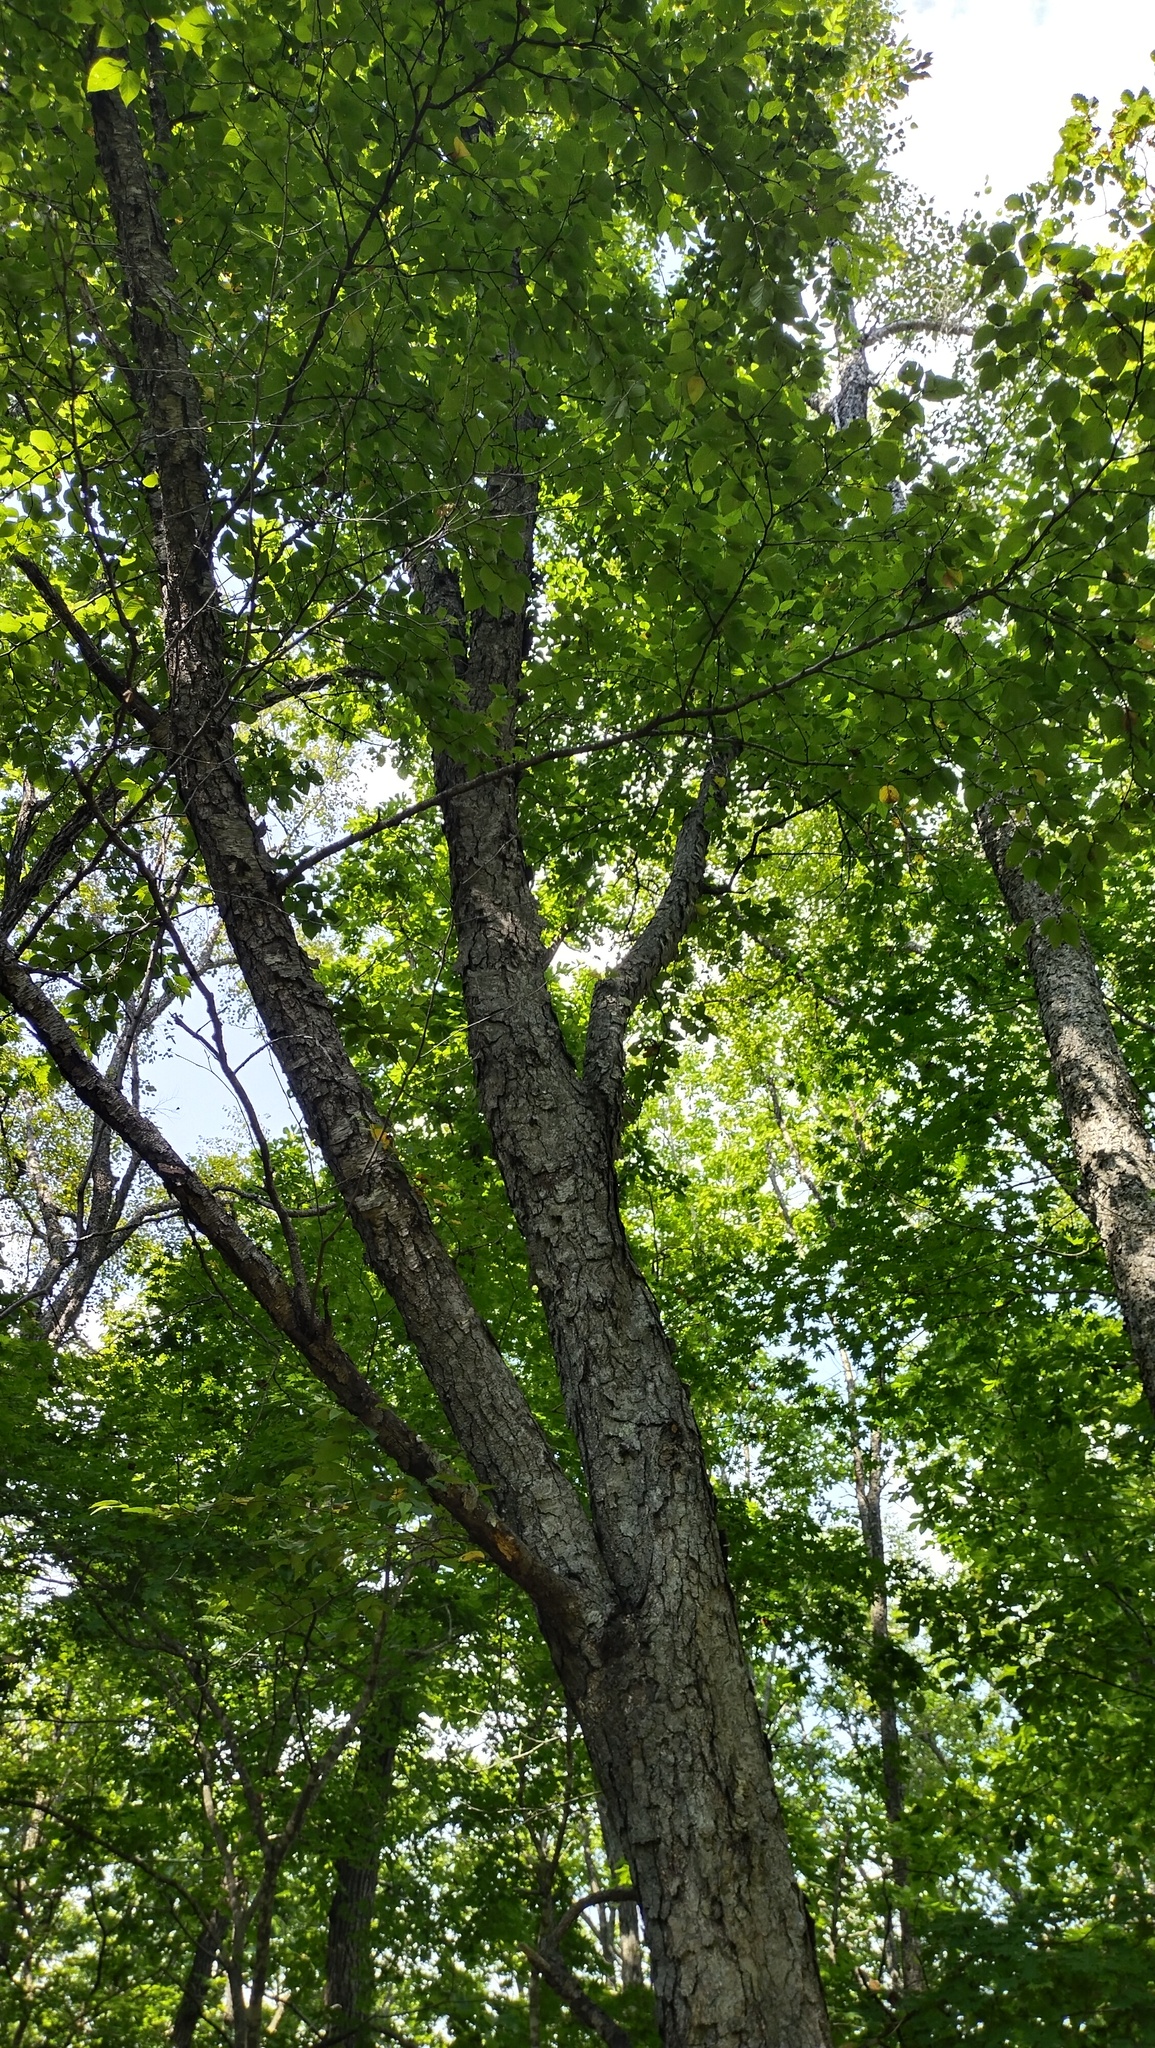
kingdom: Plantae
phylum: Tracheophyta
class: Magnoliopsida
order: Fagales
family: Betulaceae
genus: Betula
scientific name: Betula schmidtii
